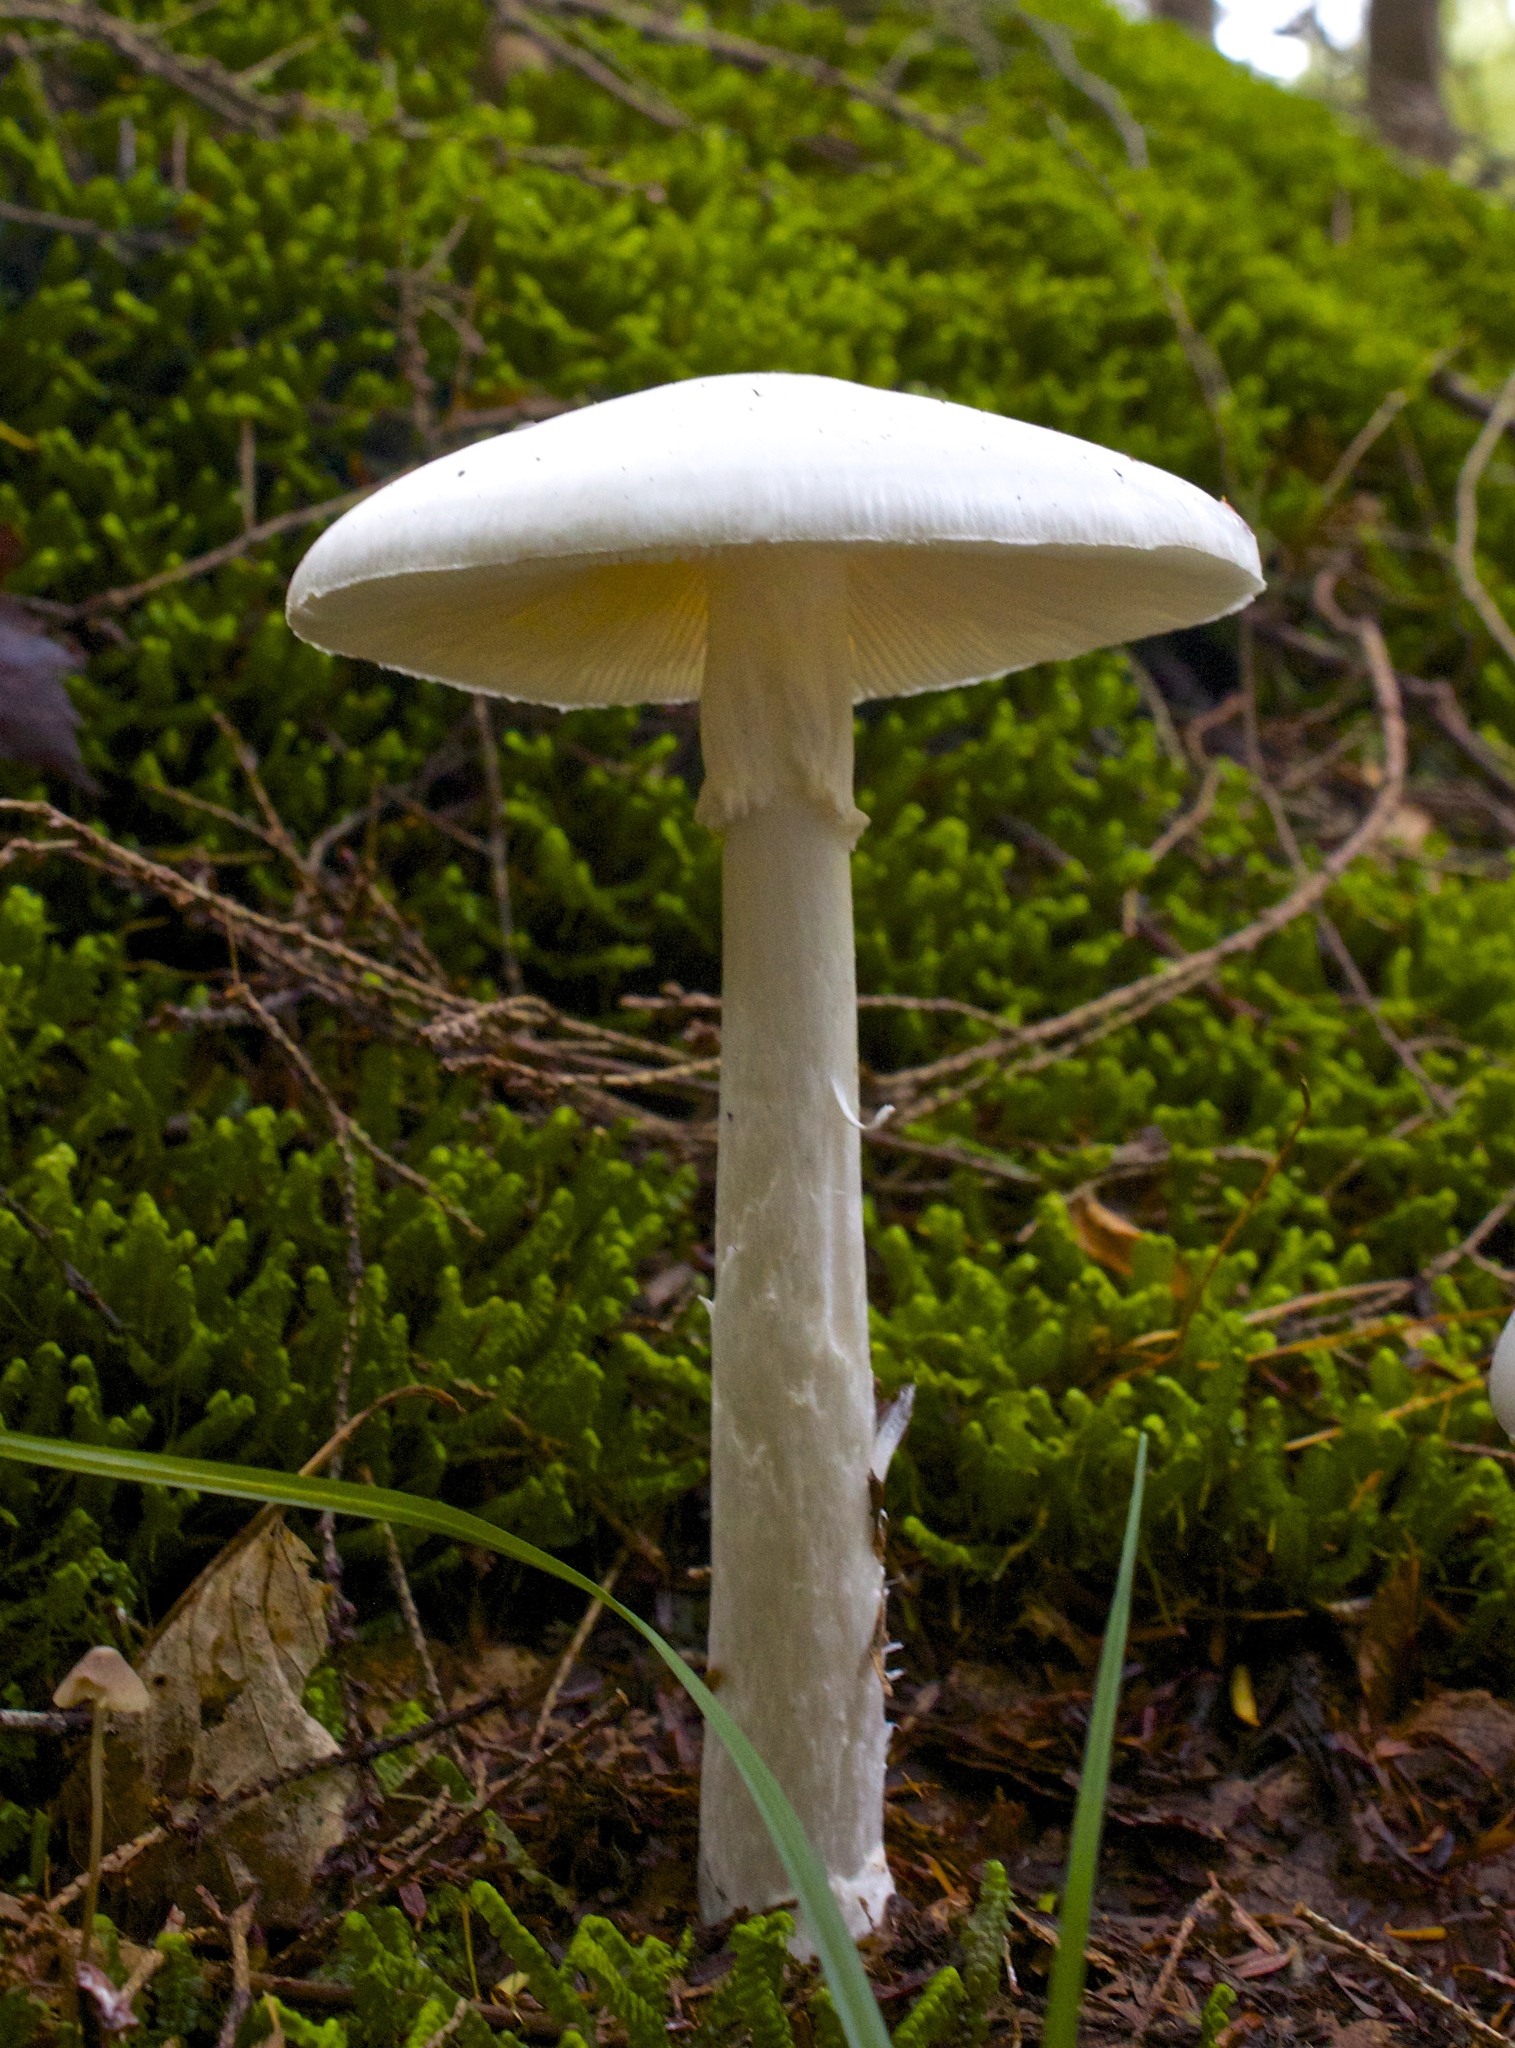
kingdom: Fungi
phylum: Basidiomycota
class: Agaricomycetes
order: Agaricales
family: Amanitaceae
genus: Amanita
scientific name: Amanita bisporigera
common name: Eastern north american destroying angel
